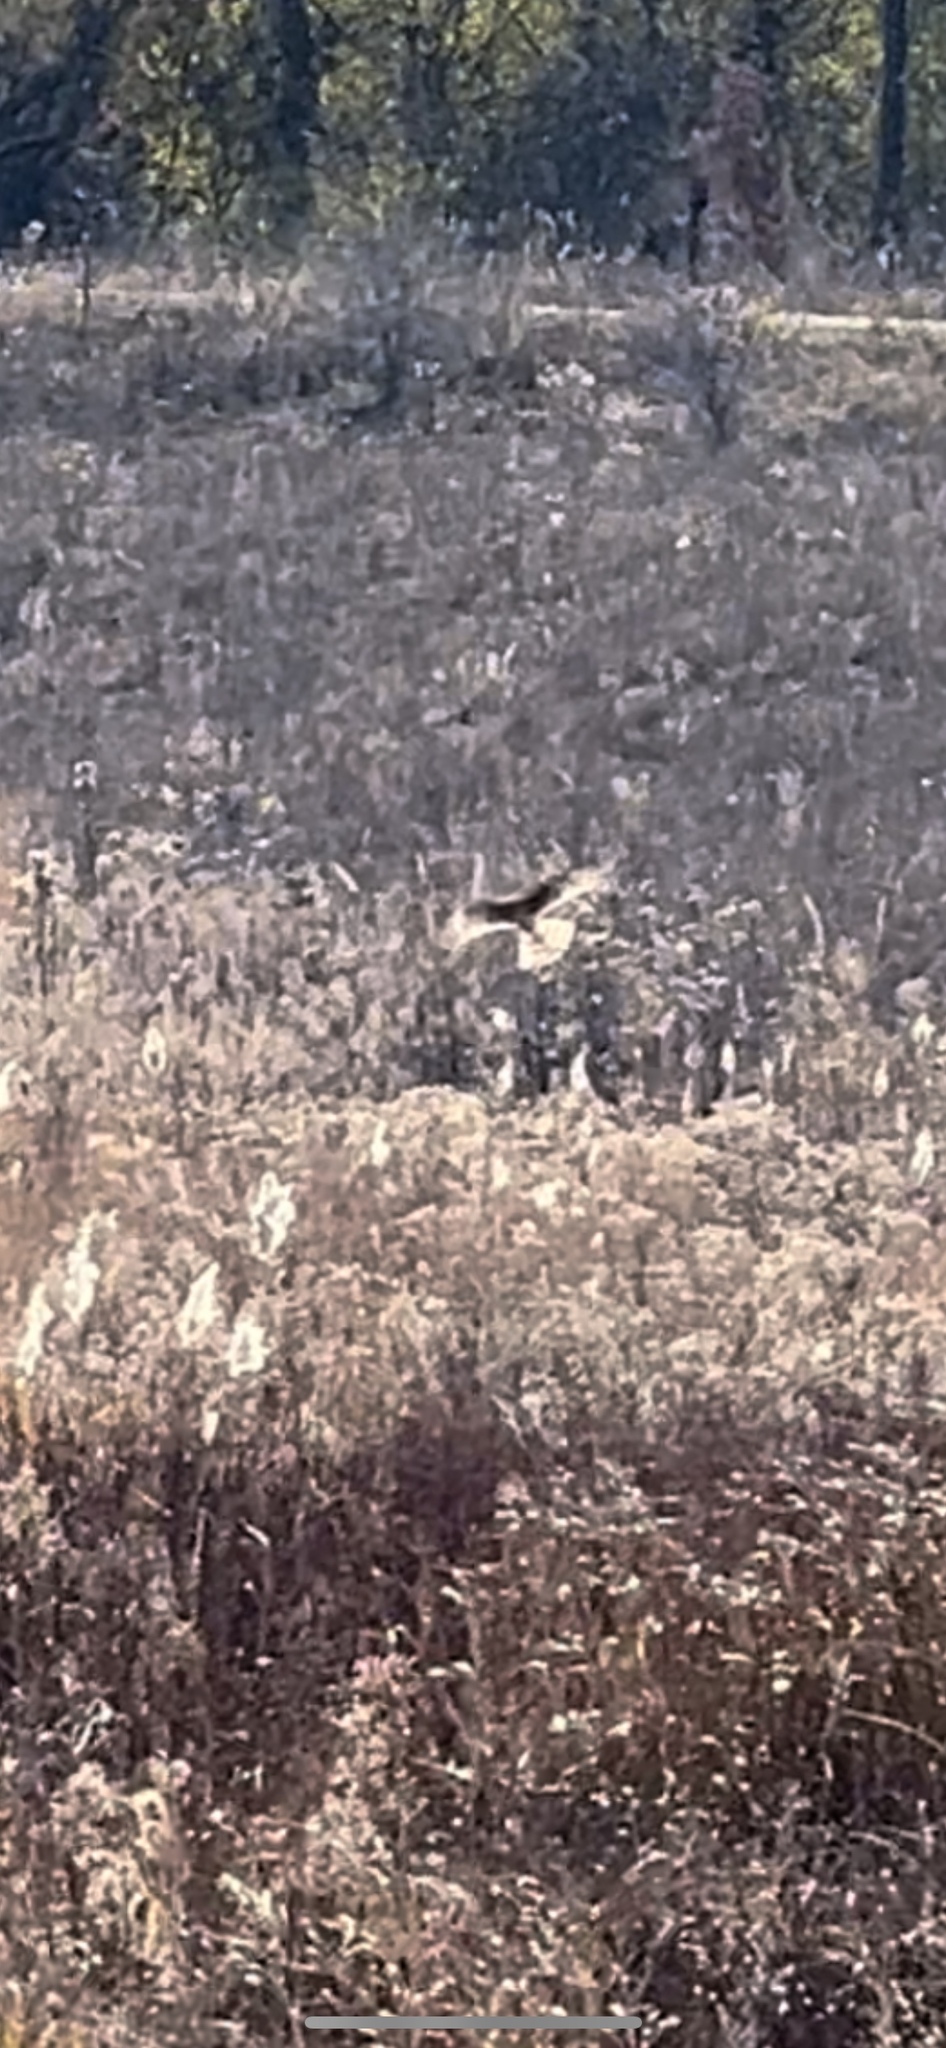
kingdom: Animalia
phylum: Chordata
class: Aves
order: Accipitriformes
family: Accipitridae
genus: Circus
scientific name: Circus cyaneus
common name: Hen harrier
